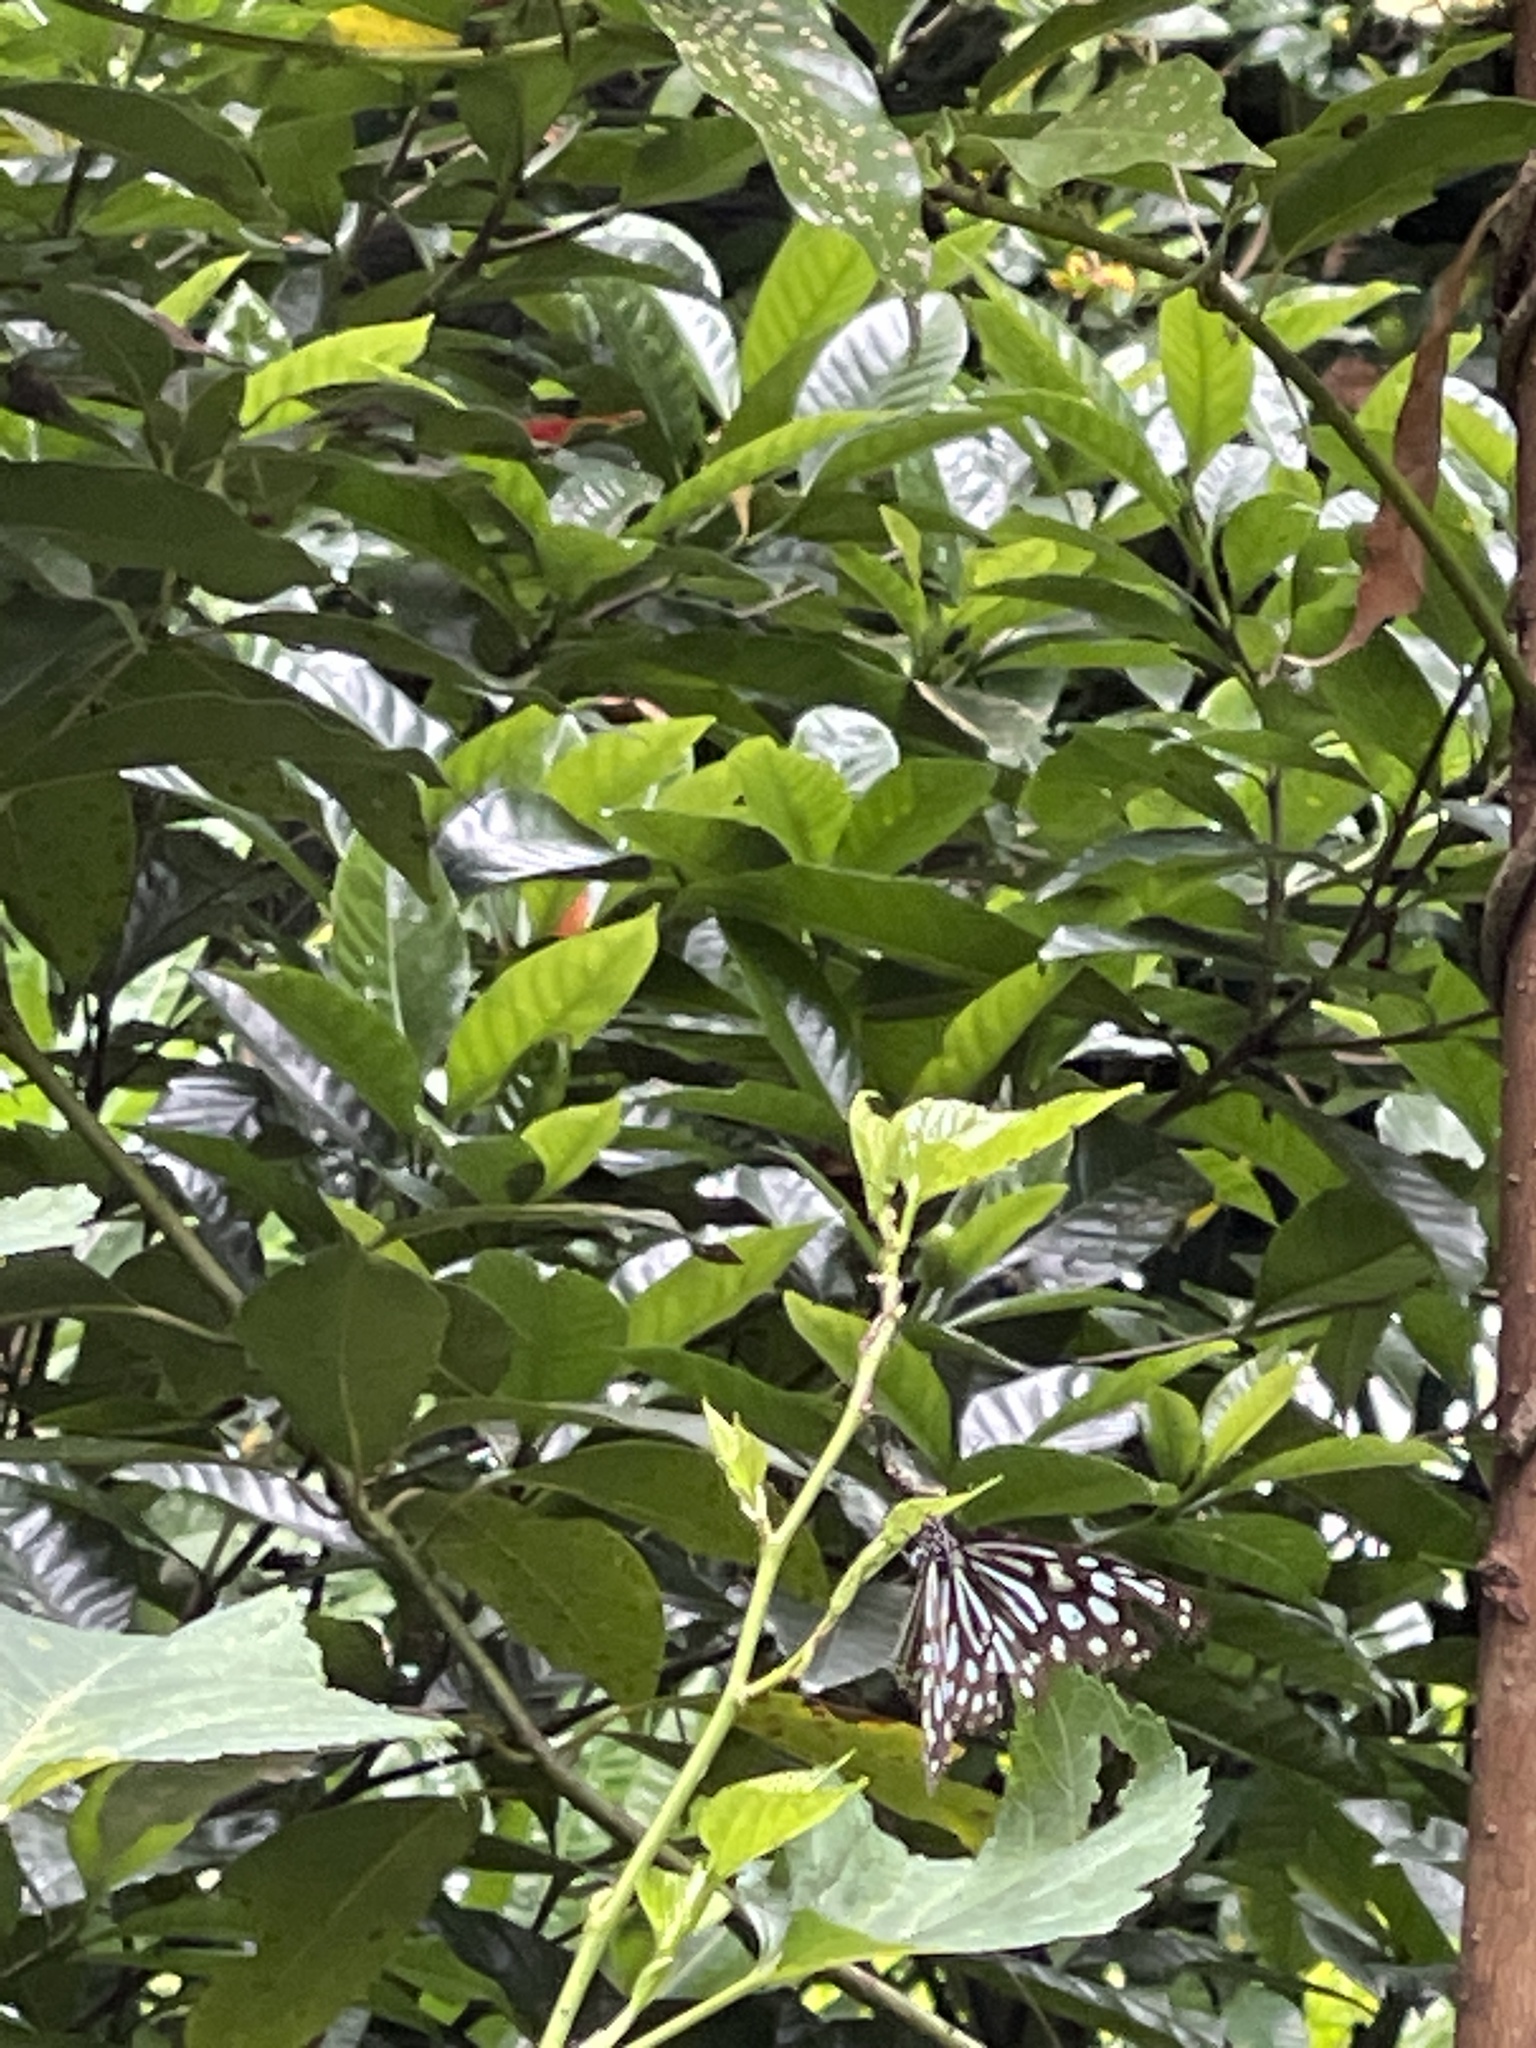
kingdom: Animalia
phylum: Arthropoda
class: Insecta
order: Lepidoptera
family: Nymphalidae
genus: Ideopsis
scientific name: Ideopsis similis
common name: Ceylon blue glassy tiger
